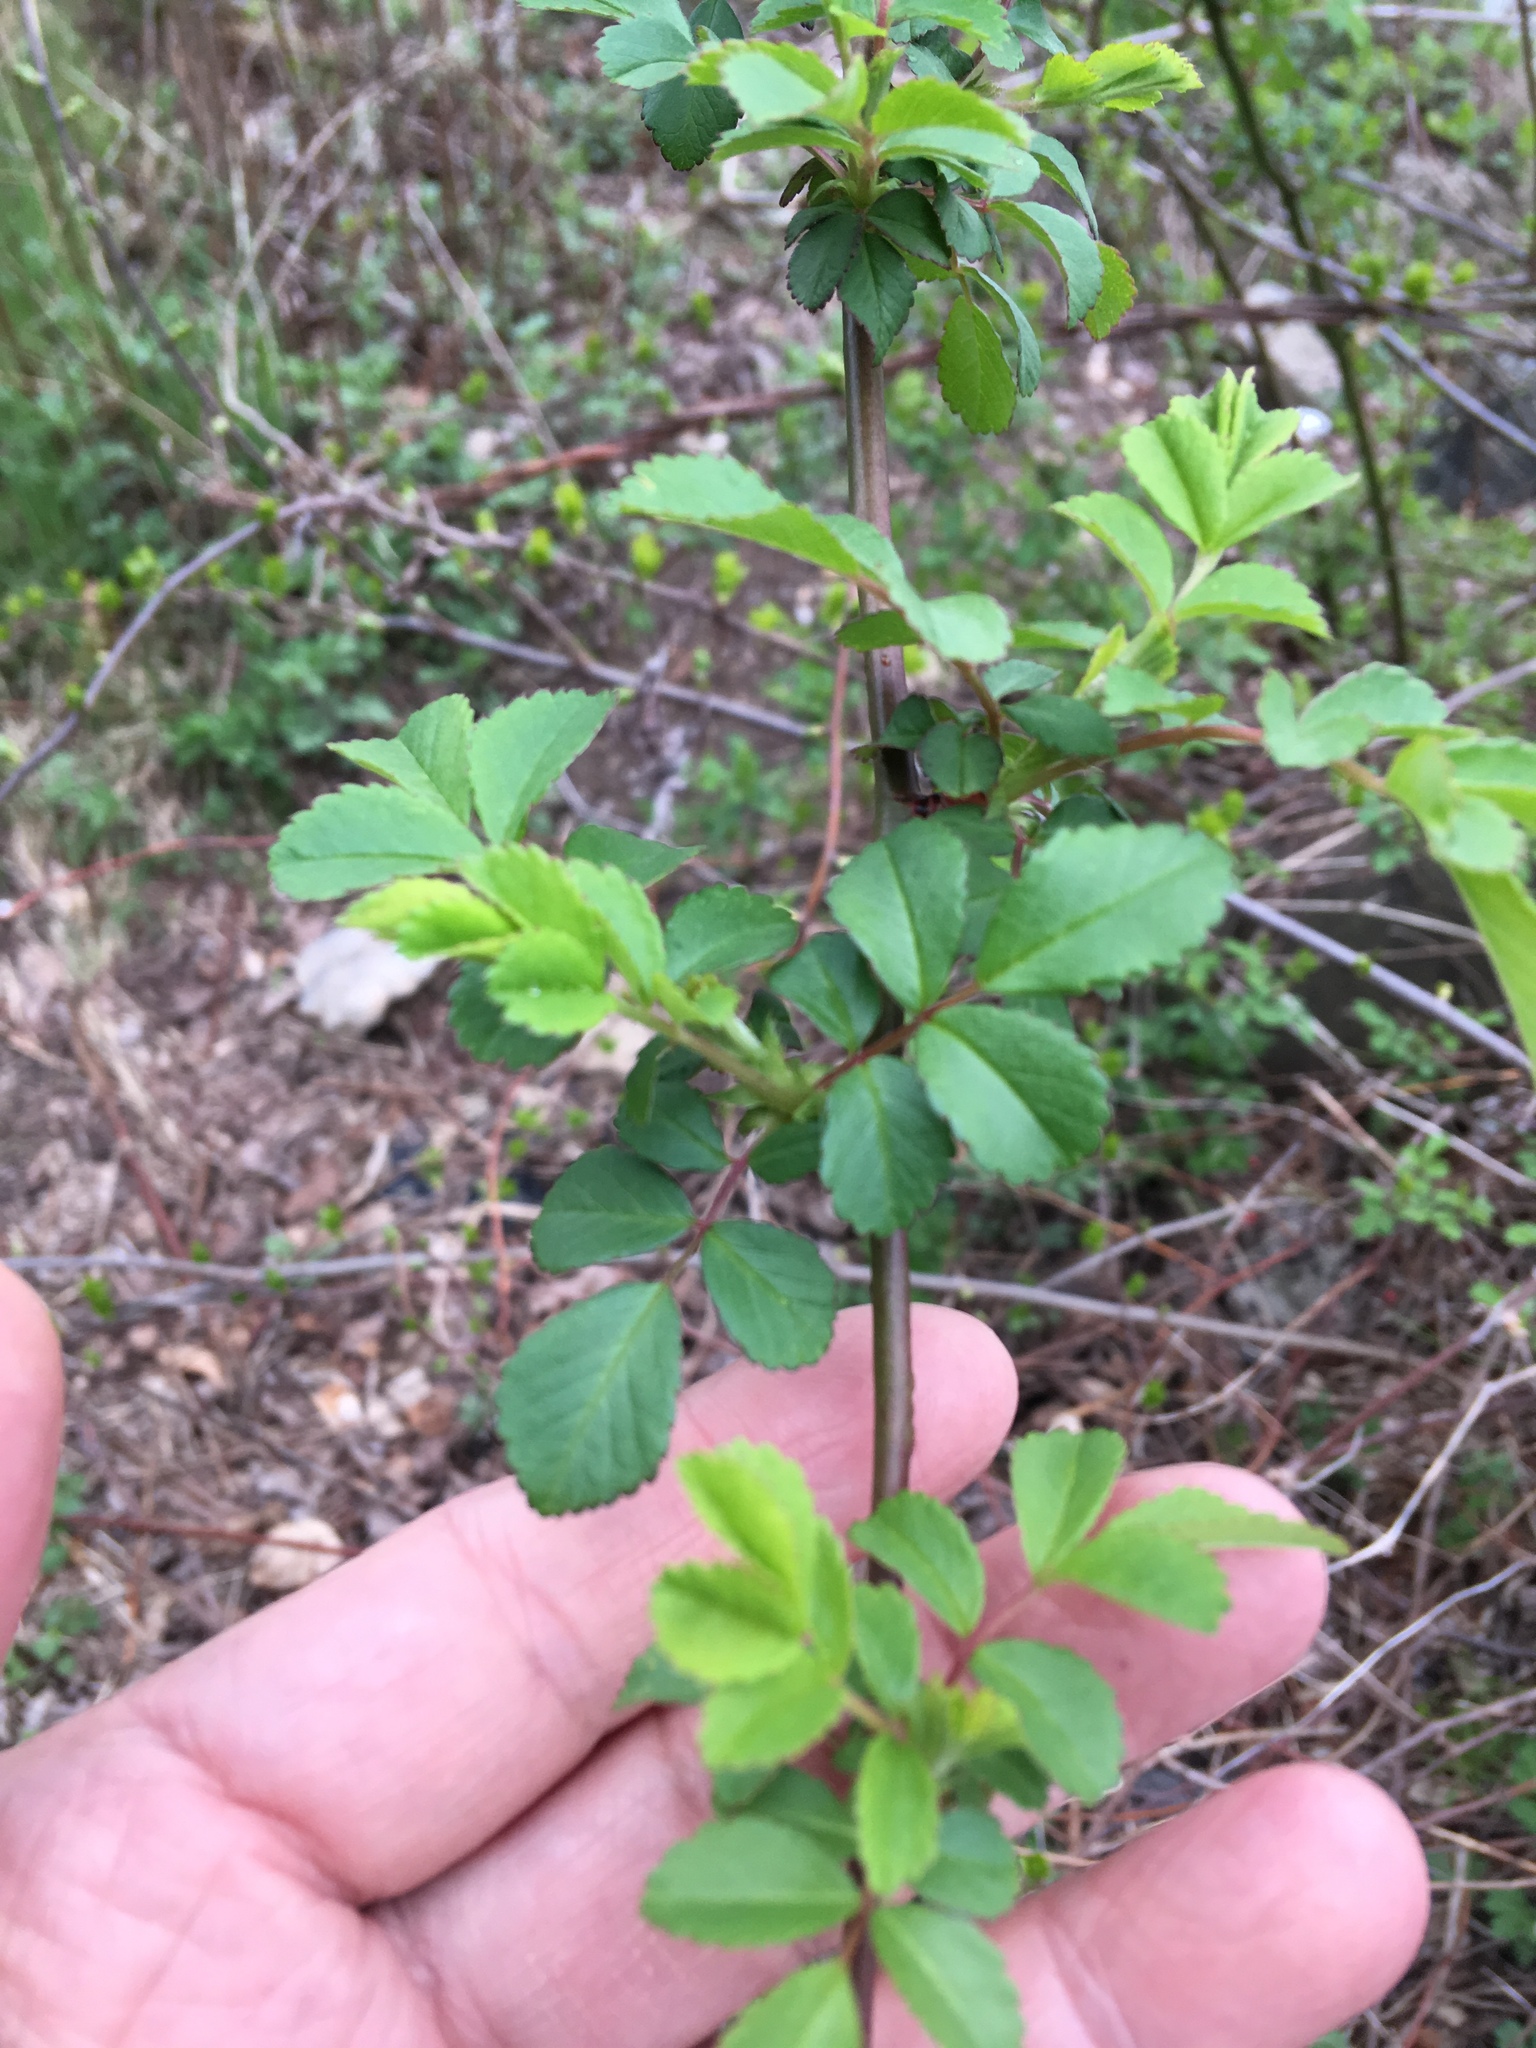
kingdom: Plantae
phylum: Tracheophyta
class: Magnoliopsida
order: Rosales
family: Rosaceae
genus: Rosa
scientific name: Rosa multiflora
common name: Multiflora rose
